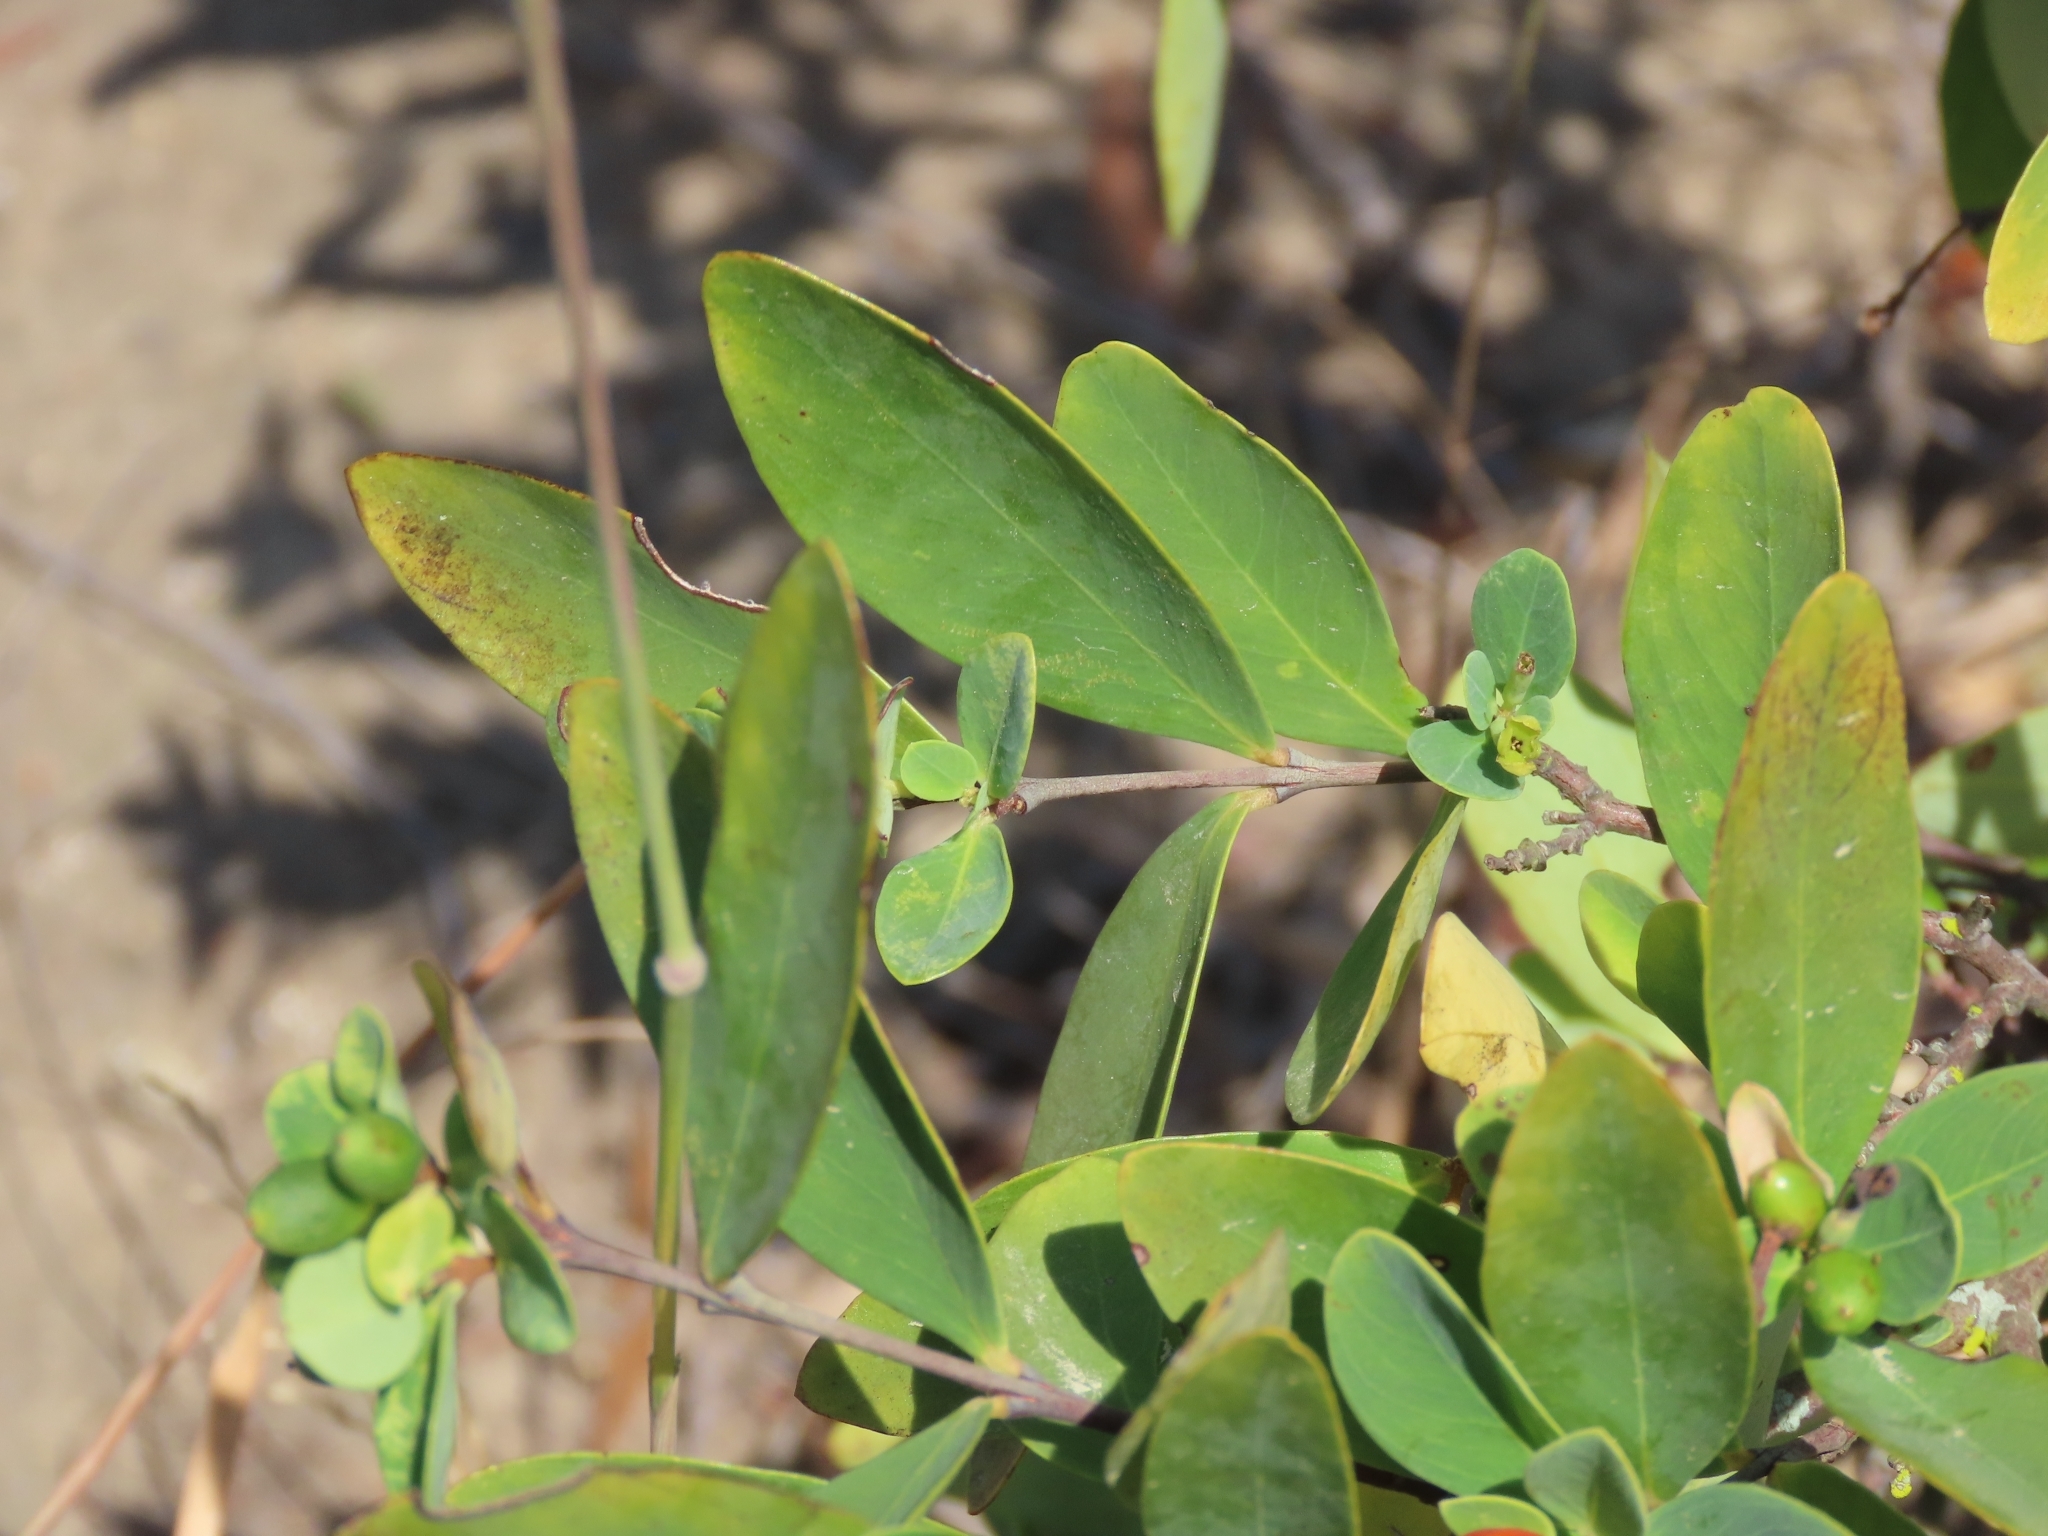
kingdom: Plantae
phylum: Tracheophyta
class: Magnoliopsida
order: Malvales
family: Thymelaeaceae
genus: Wikstroemia
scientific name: Wikstroemia indica
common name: Tiebush
